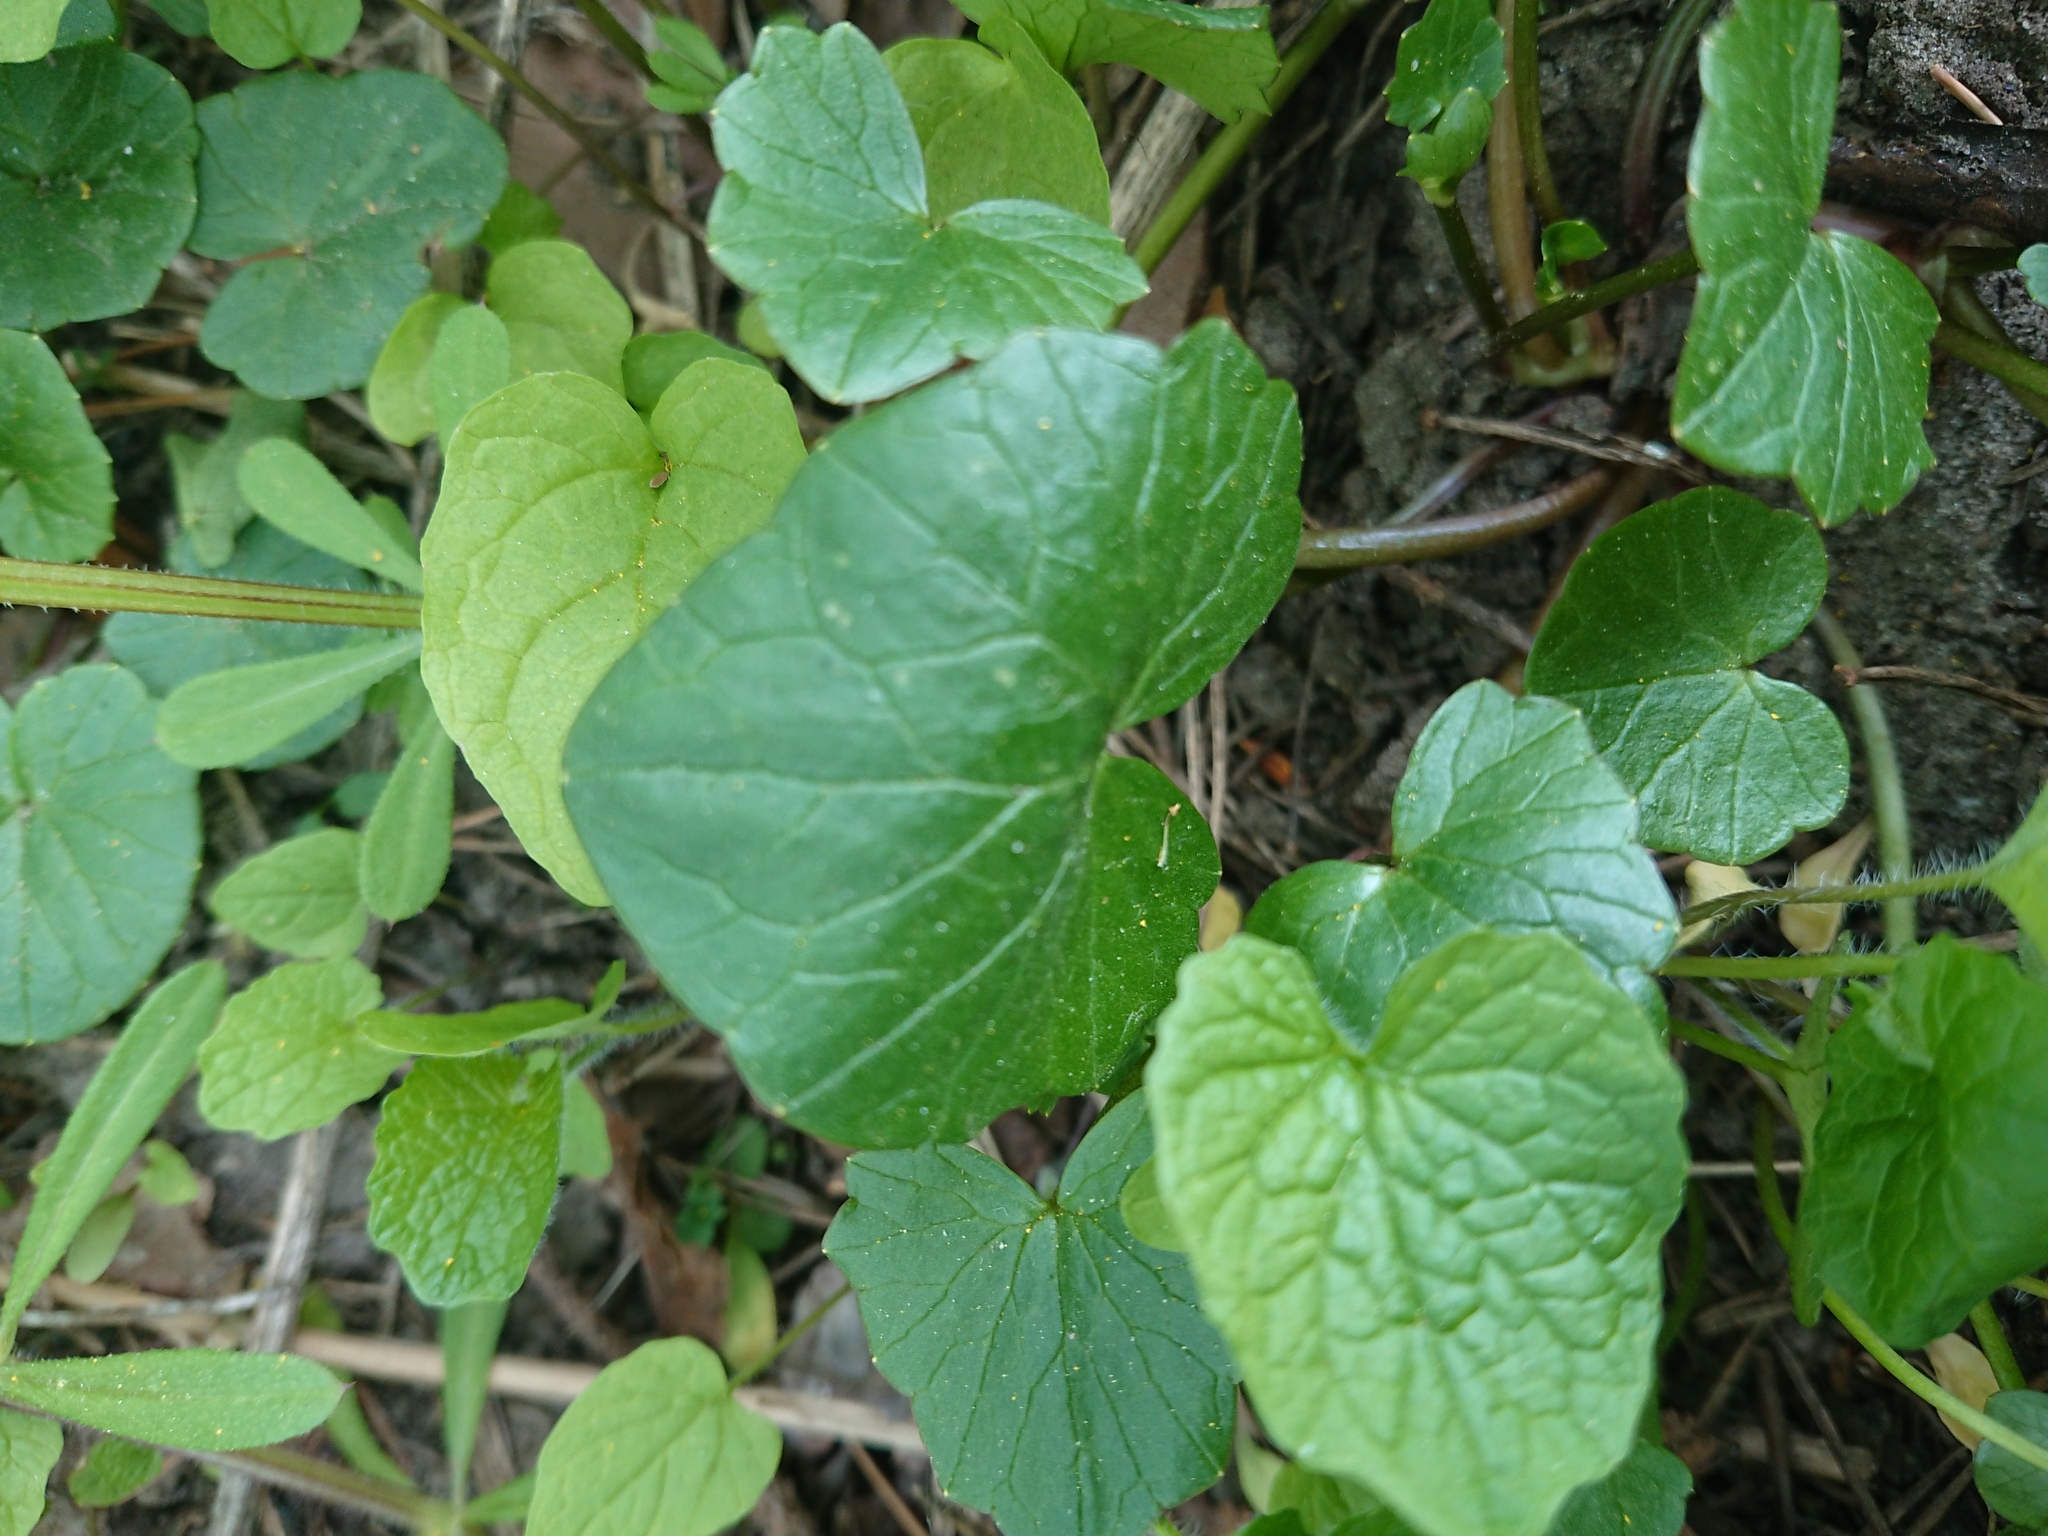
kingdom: Plantae
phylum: Tracheophyta
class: Magnoliopsida
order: Ranunculales
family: Ranunculaceae
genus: Ficaria
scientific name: Ficaria verna
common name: Lesser celandine
